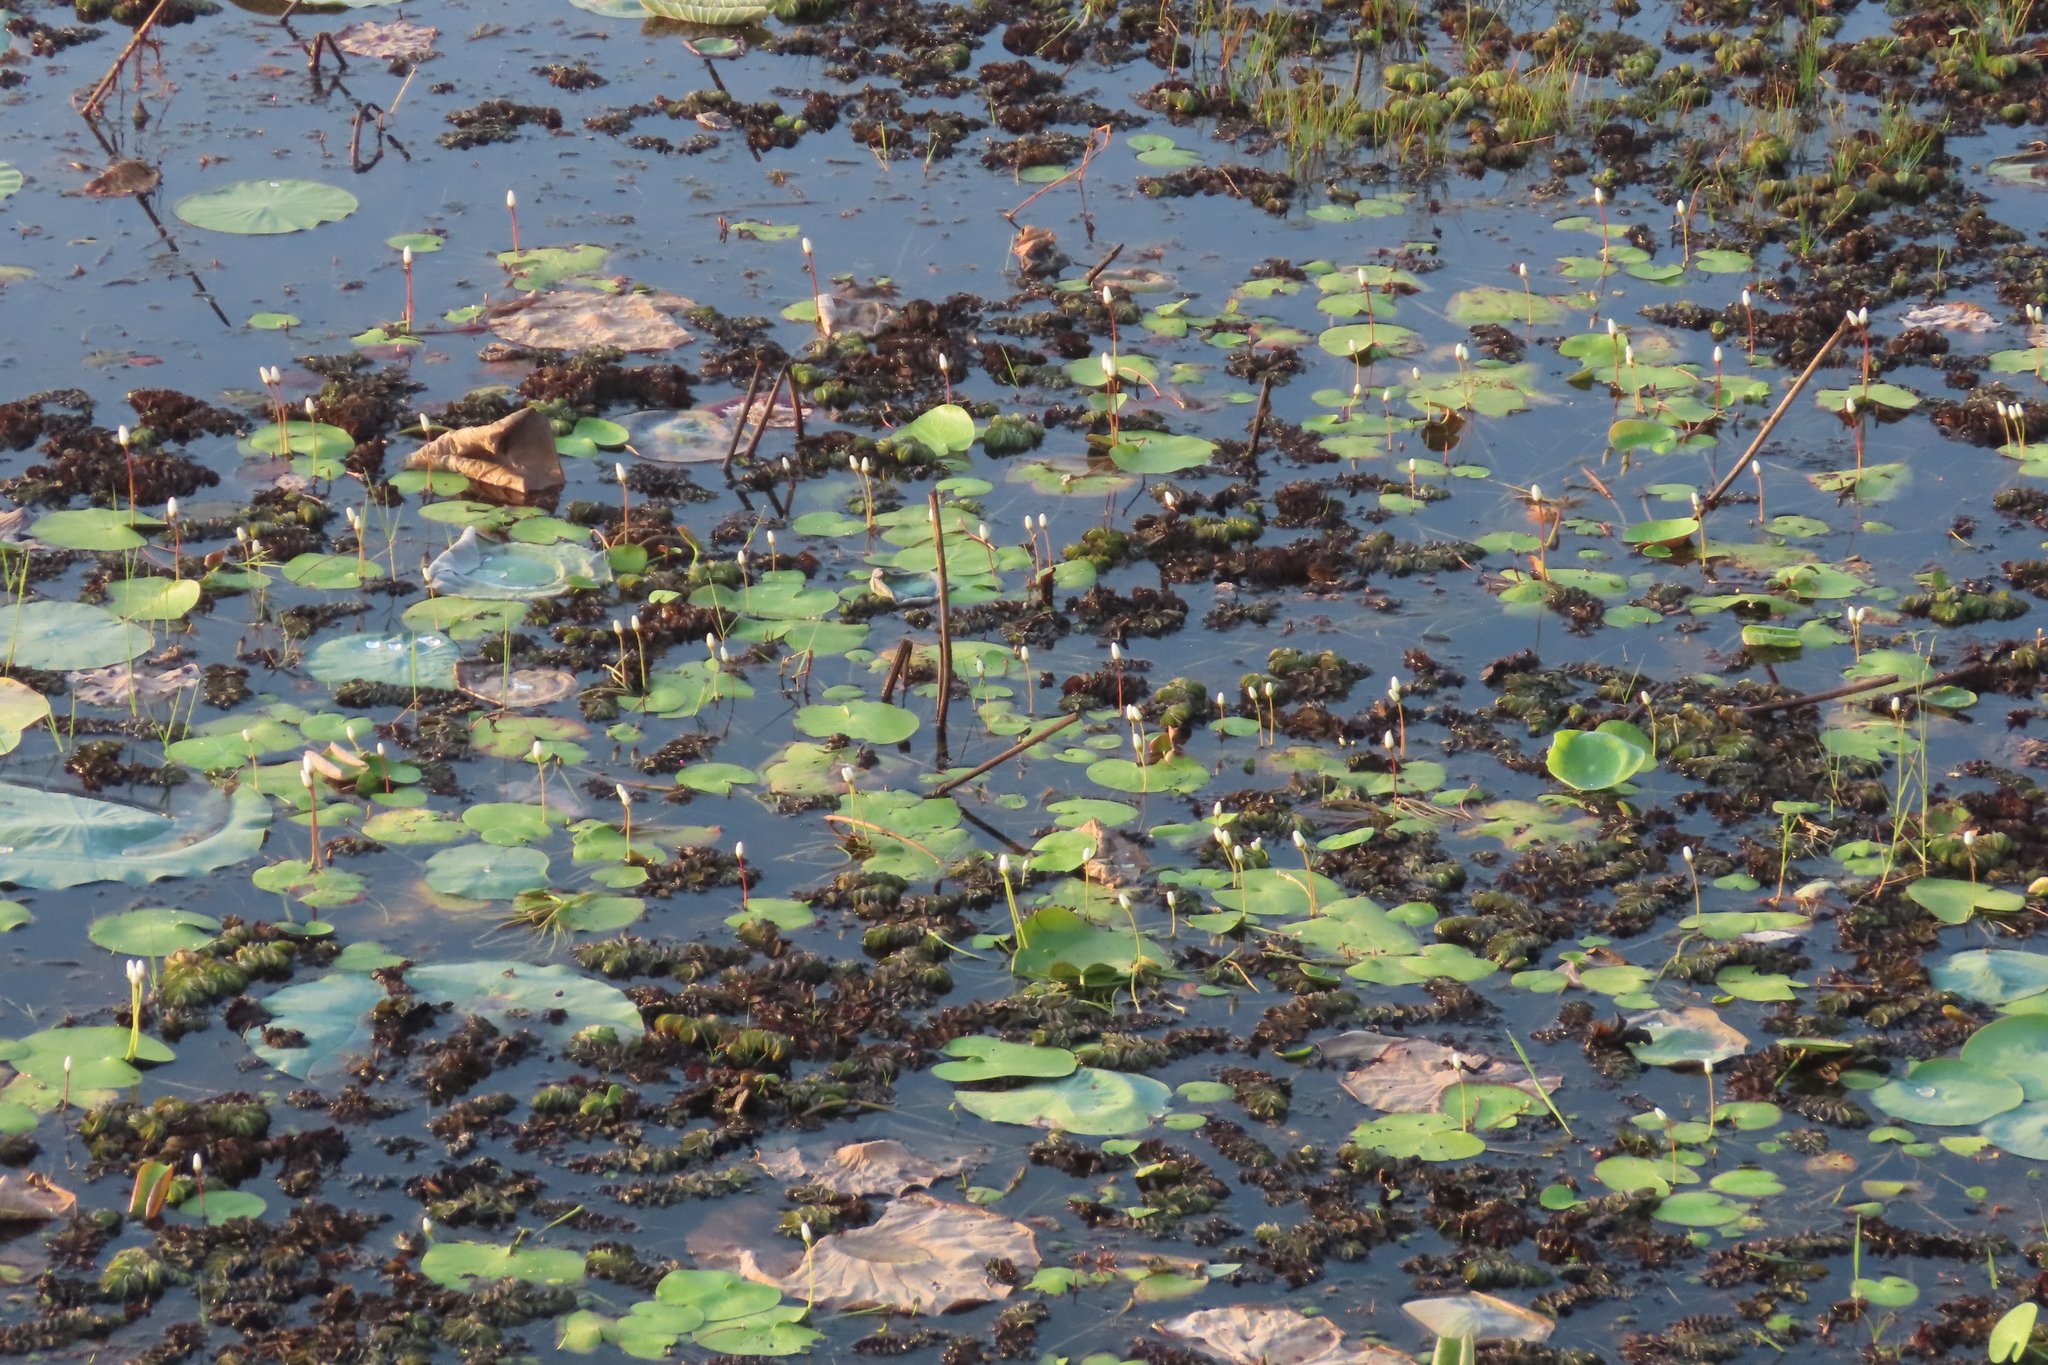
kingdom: Plantae
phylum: Tracheophyta
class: Magnoliopsida
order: Asterales
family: Menyanthaceae
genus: Nymphoides
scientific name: Nymphoides indica
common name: Water-snowflake
